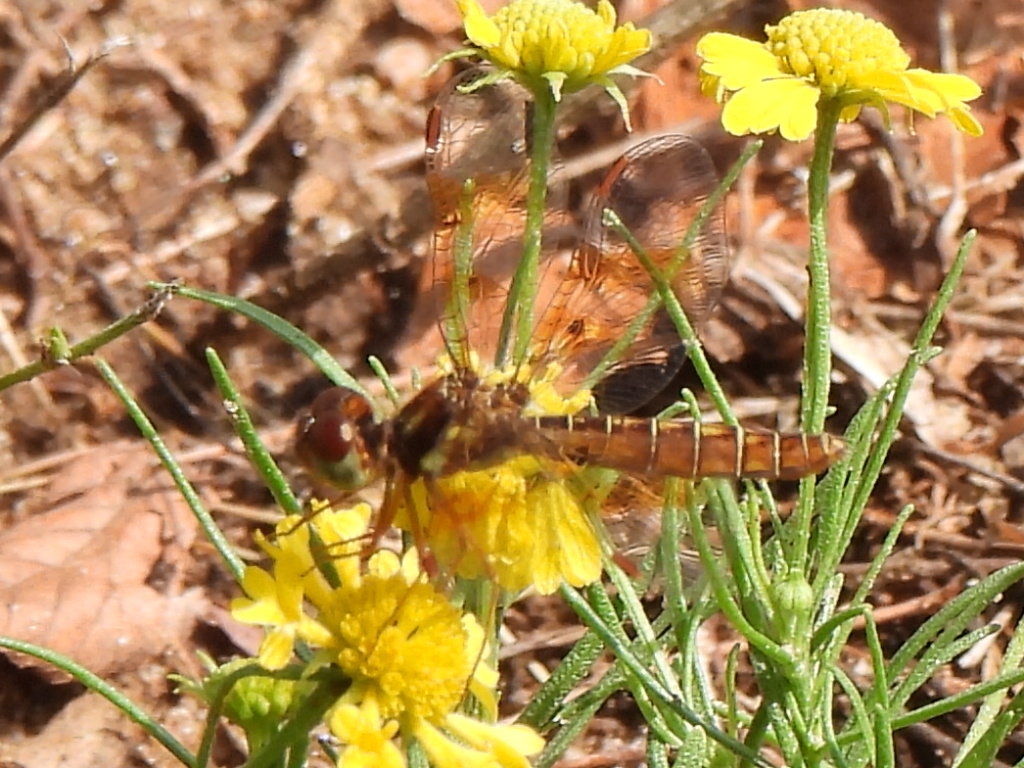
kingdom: Animalia
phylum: Arthropoda
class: Insecta
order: Odonata
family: Libellulidae
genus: Perithemis
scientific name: Perithemis tenera
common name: Eastern amberwing
